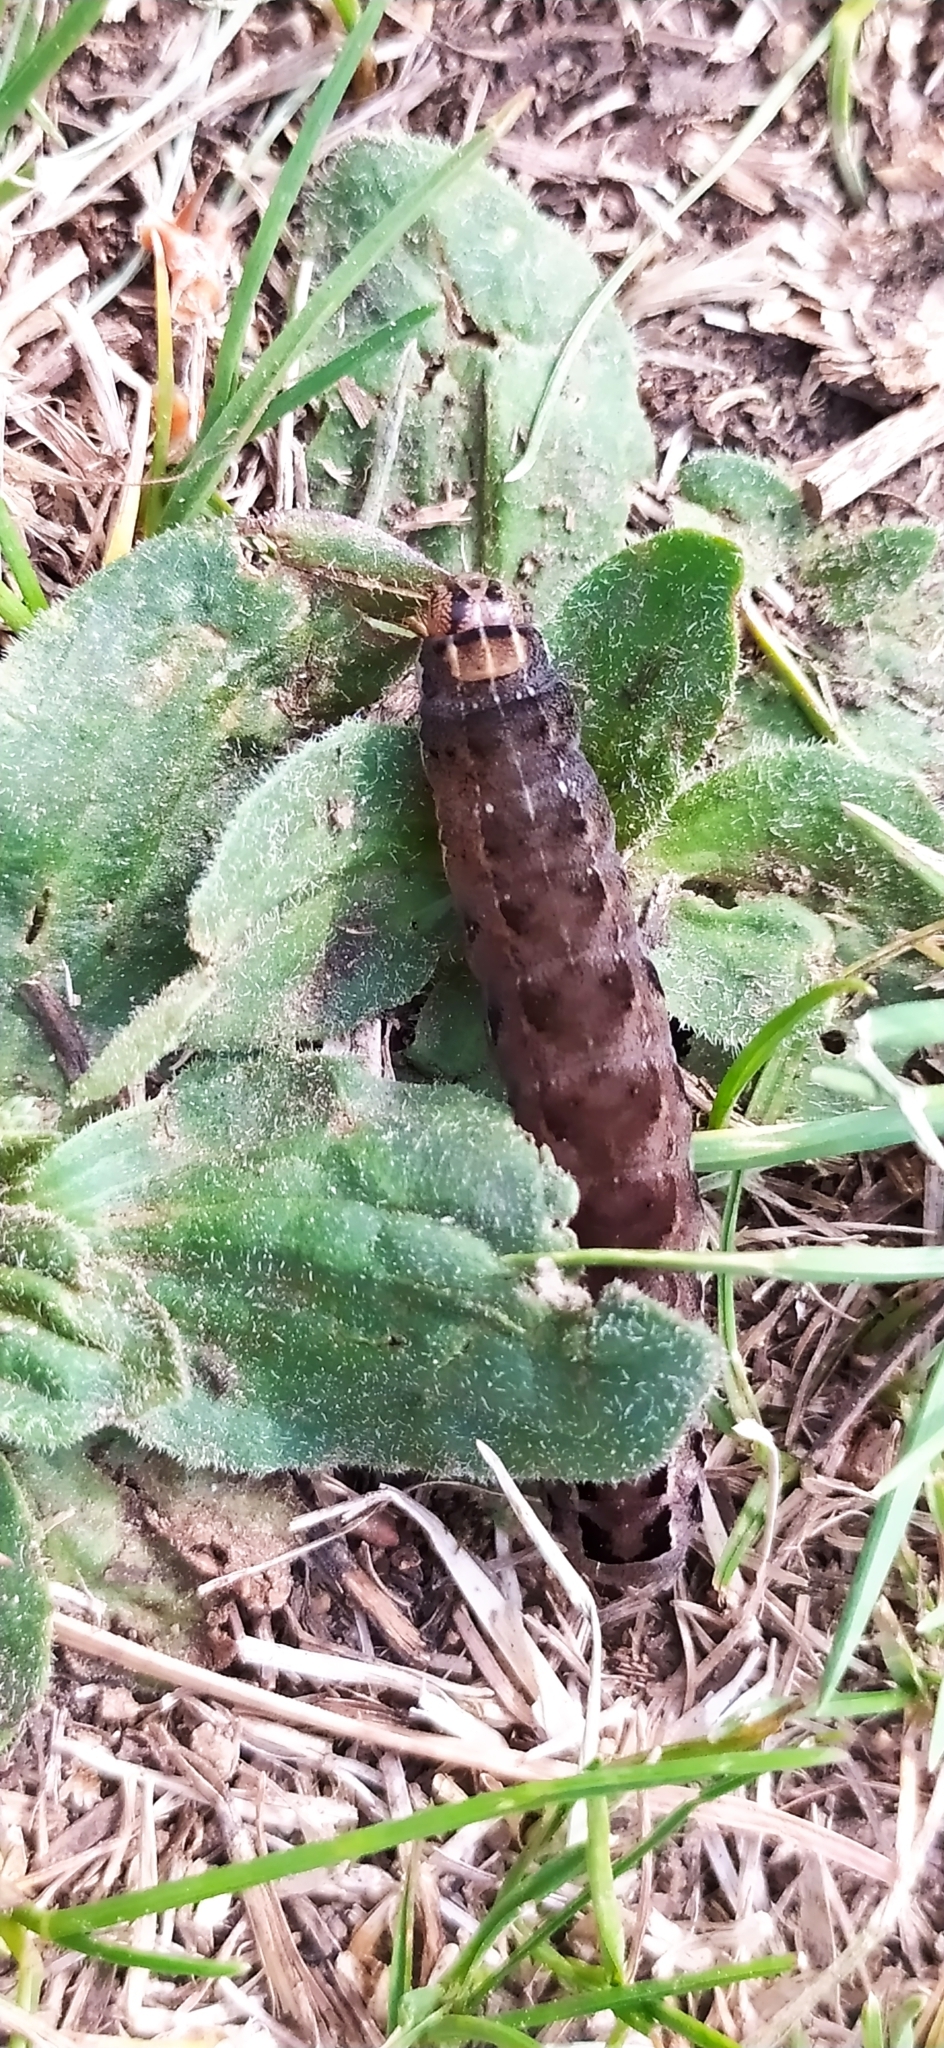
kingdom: Animalia
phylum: Arthropoda
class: Insecta
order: Lepidoptera
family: Noctuidae
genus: Eurois
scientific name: Eurois occulta
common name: Great brocade
